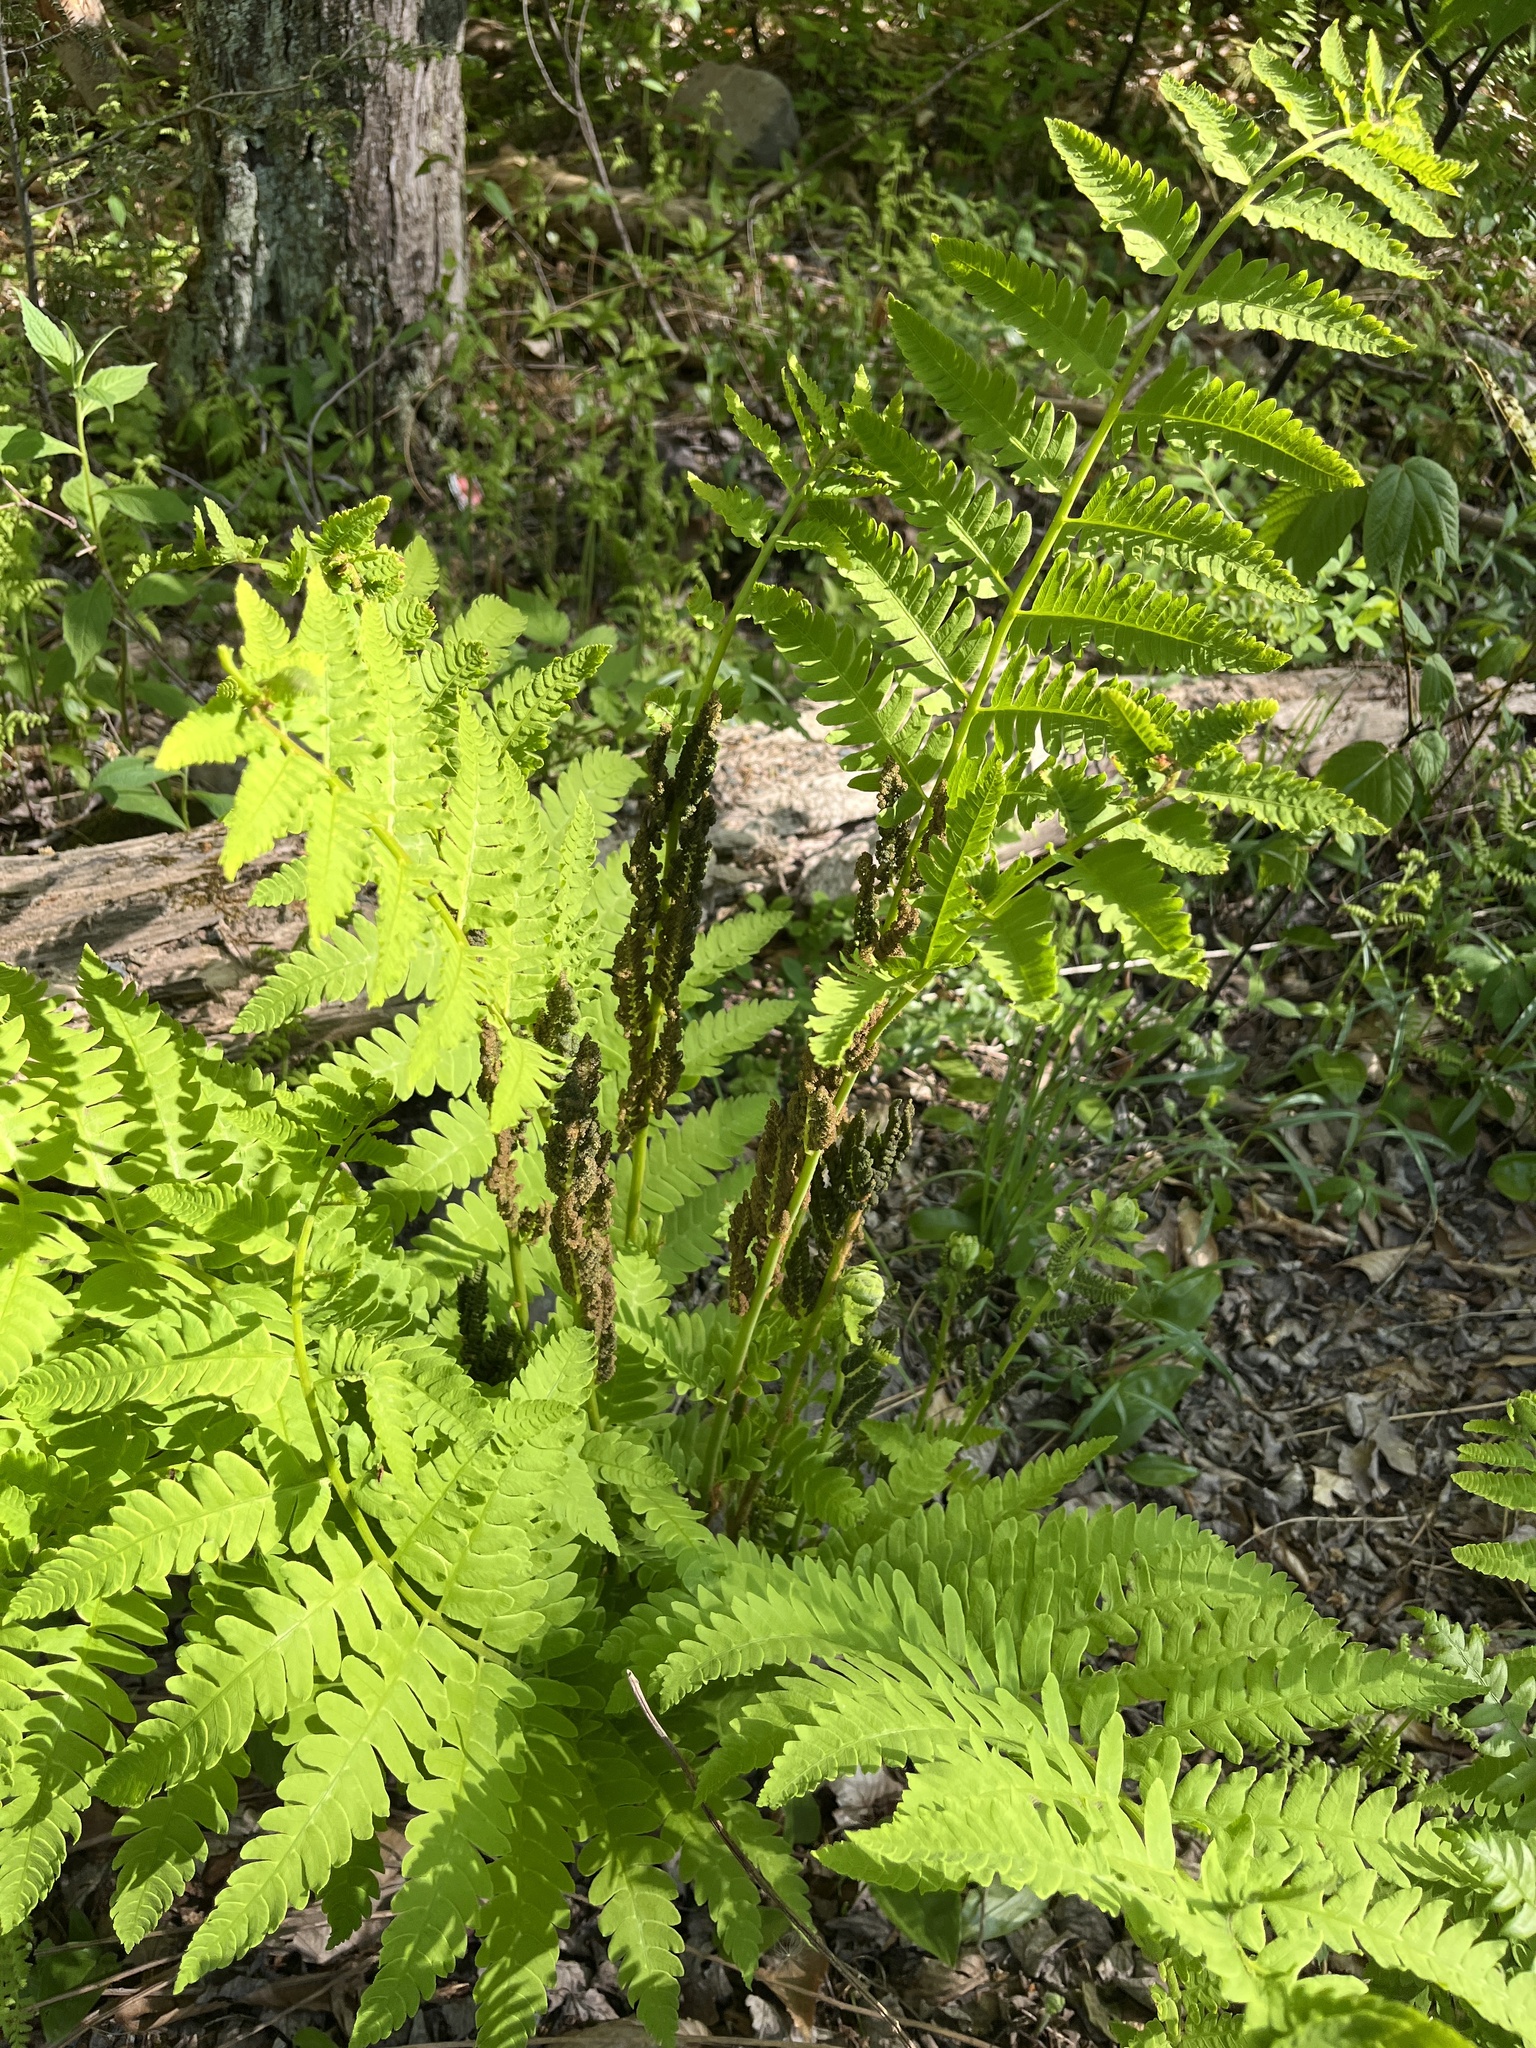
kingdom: Plantae
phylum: Tracheophyta
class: Polypodiopsida
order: Osmundales
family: Osmundaceae
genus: Claytosmunda
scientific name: Claytosmunda claytoniana
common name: Clayton's fern
